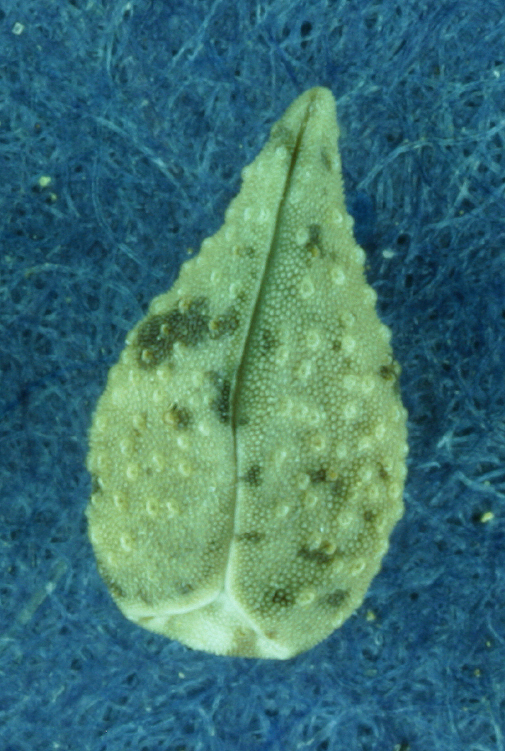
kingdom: Plantae
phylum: Tracheophyta
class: Magnoliopsida
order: Boraginales
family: Boraginaceae
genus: Cryptantha
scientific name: Cryptantha simulans
